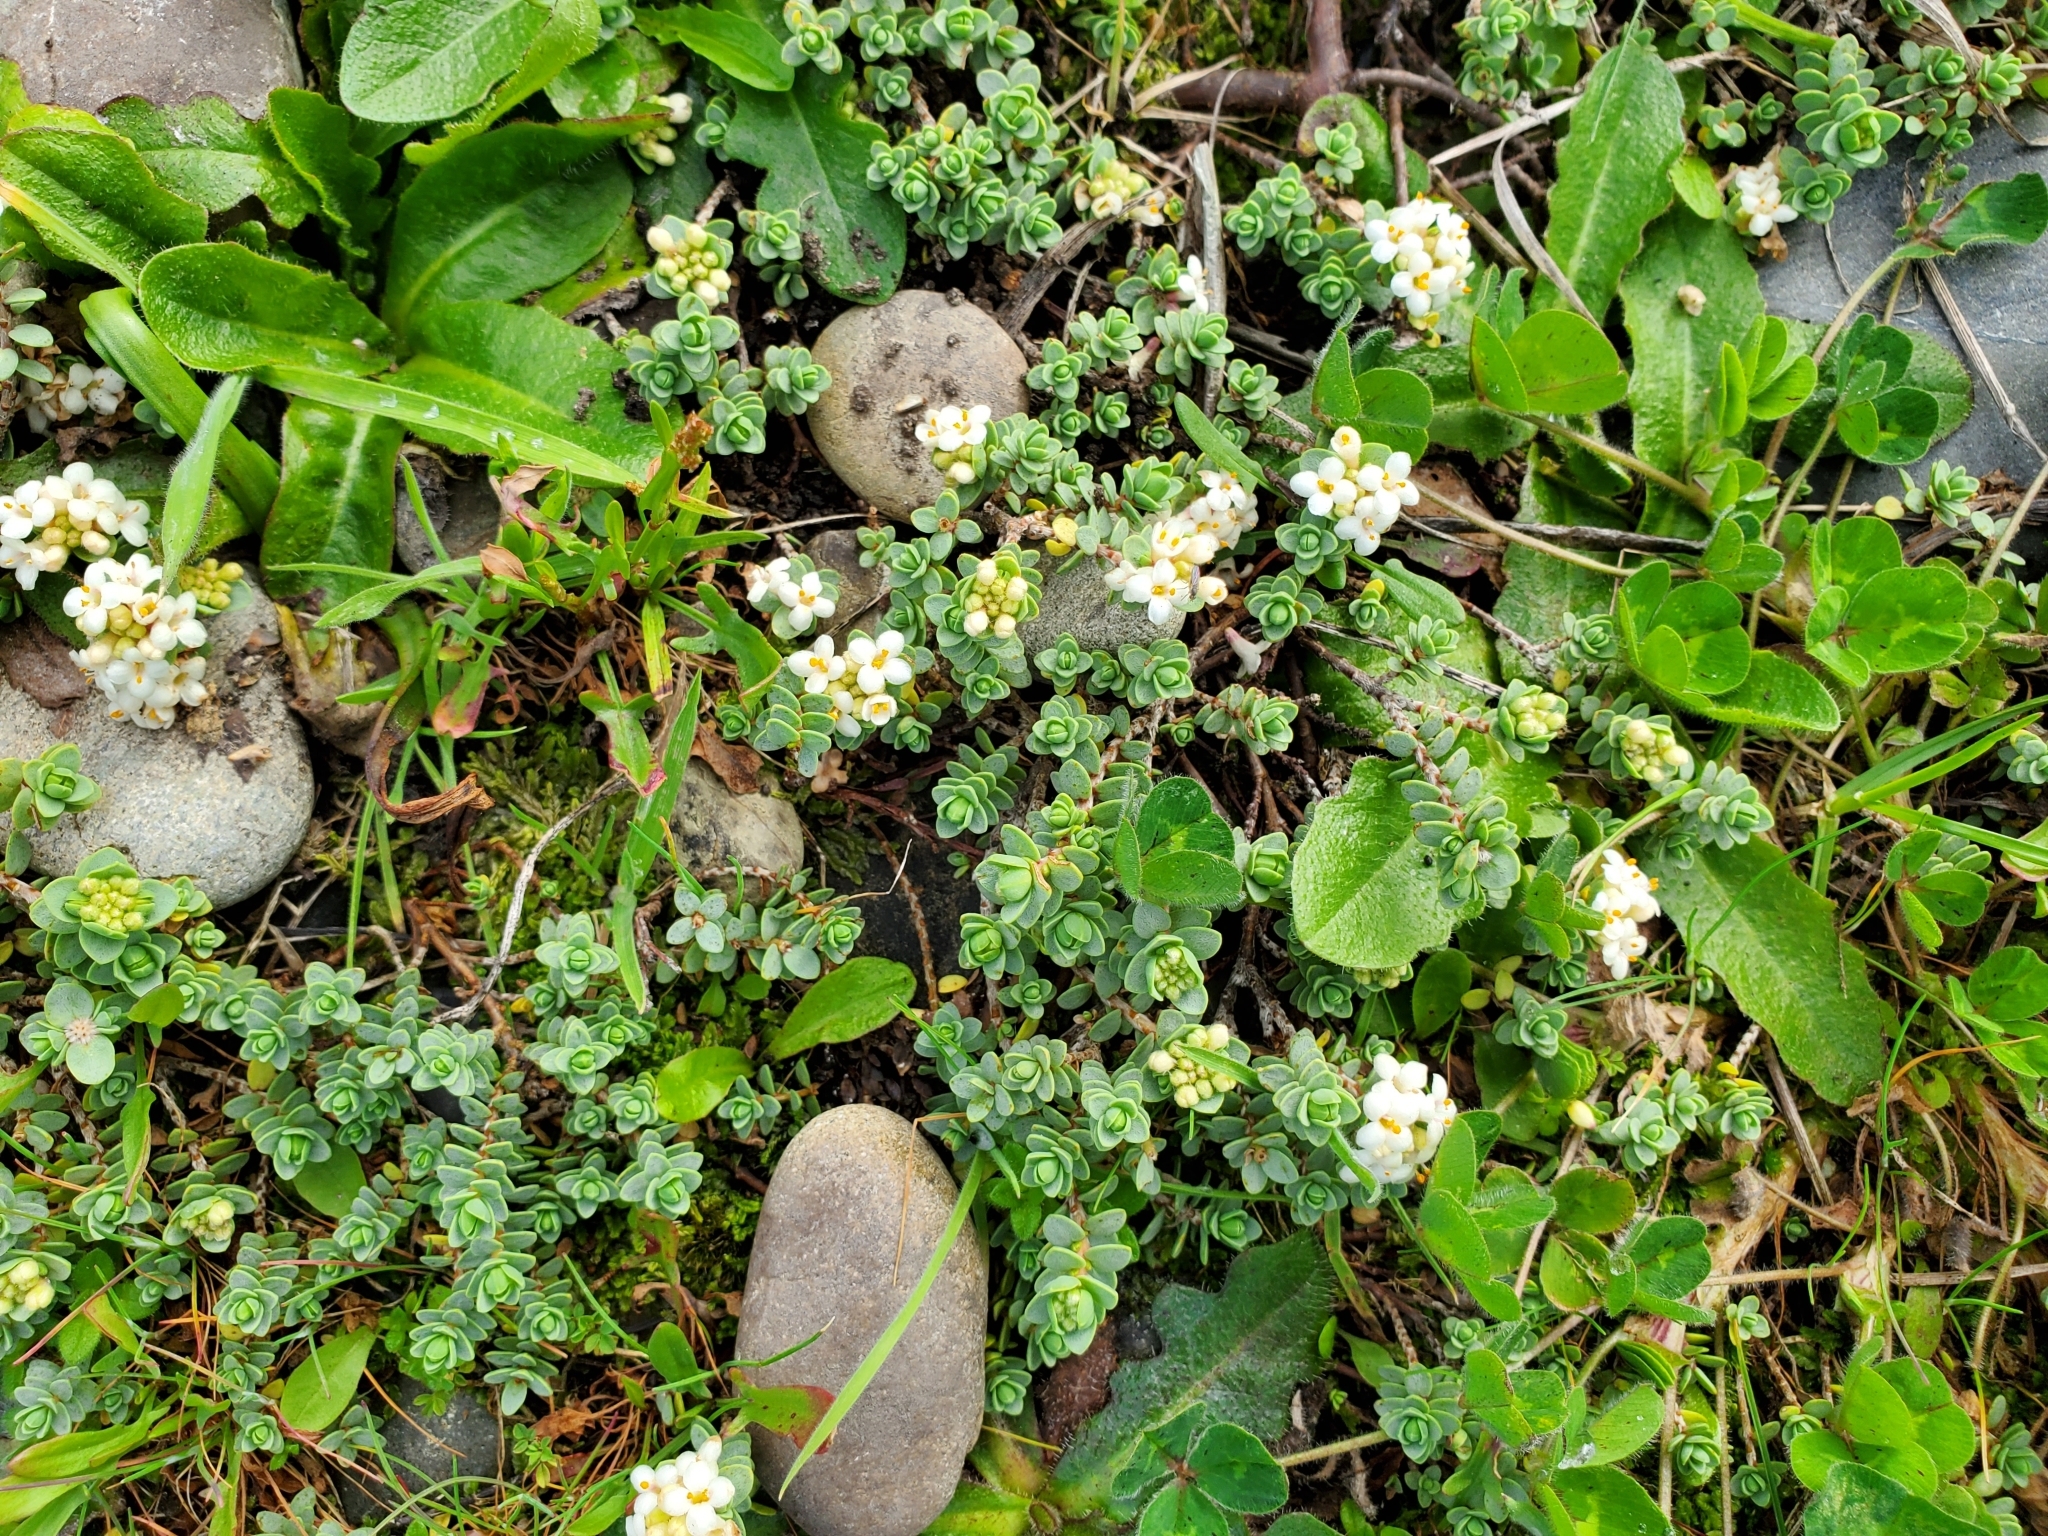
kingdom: Plantae
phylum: Tracheophyta
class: Magnoliopsida
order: Malvales
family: Thymelaeaceae
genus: Pimelea
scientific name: Pimelea urvilleana
